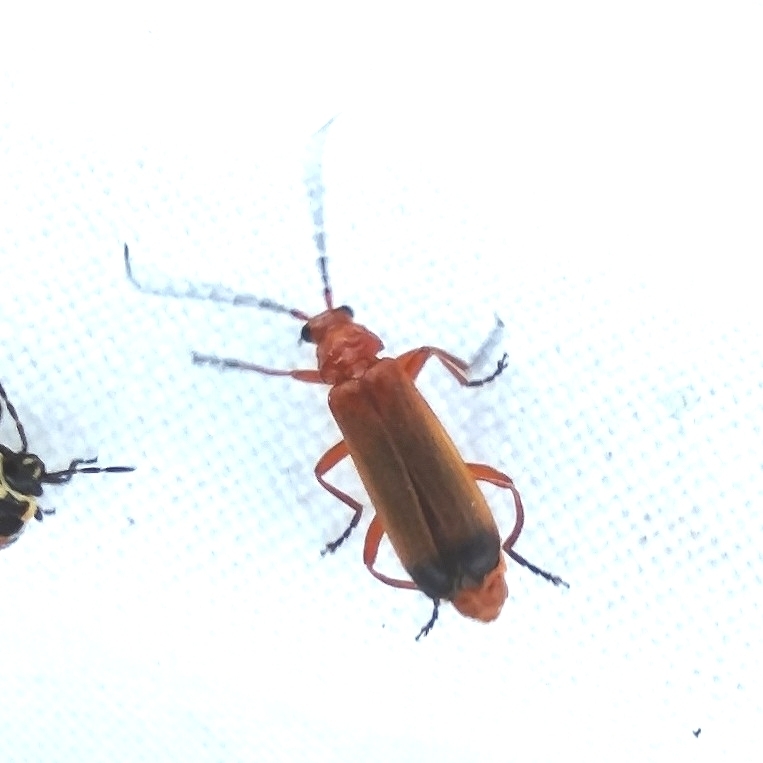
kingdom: Animalia
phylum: Arthropoda
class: Insecta
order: Coleoptera
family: Cantharidae
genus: Rhagonycha
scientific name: Rhagonycha fulva
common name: Common red soldier beetle
